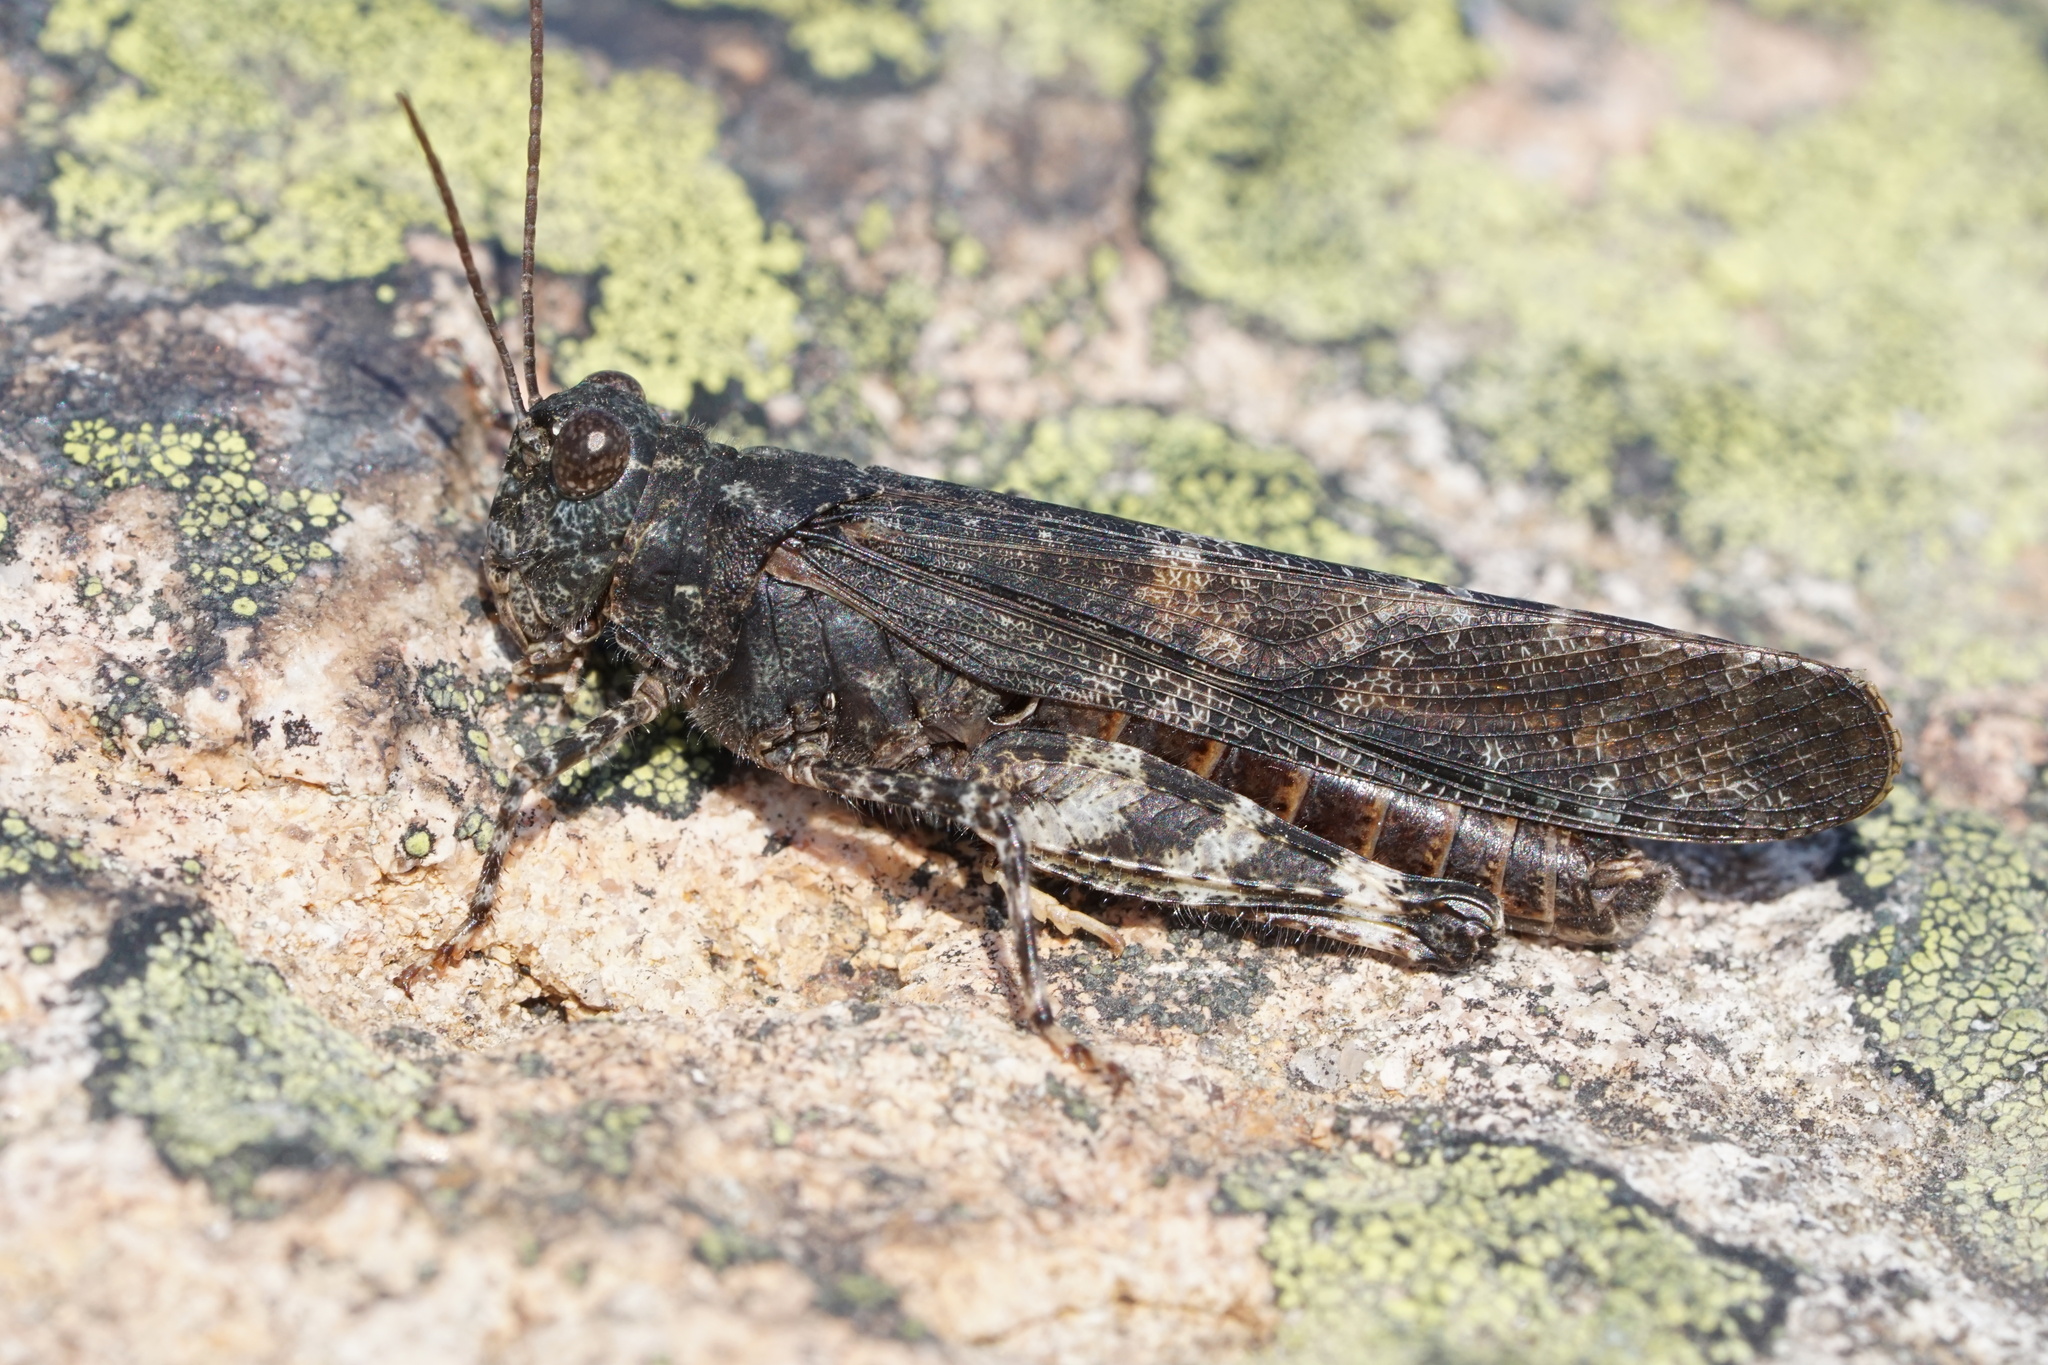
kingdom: Animalia
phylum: Arthropoda
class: Insecta
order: Orthoptera
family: Acrididae
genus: Trimerotropis
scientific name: Trimerotropis verruculata
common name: Crackling forest grasshopper
